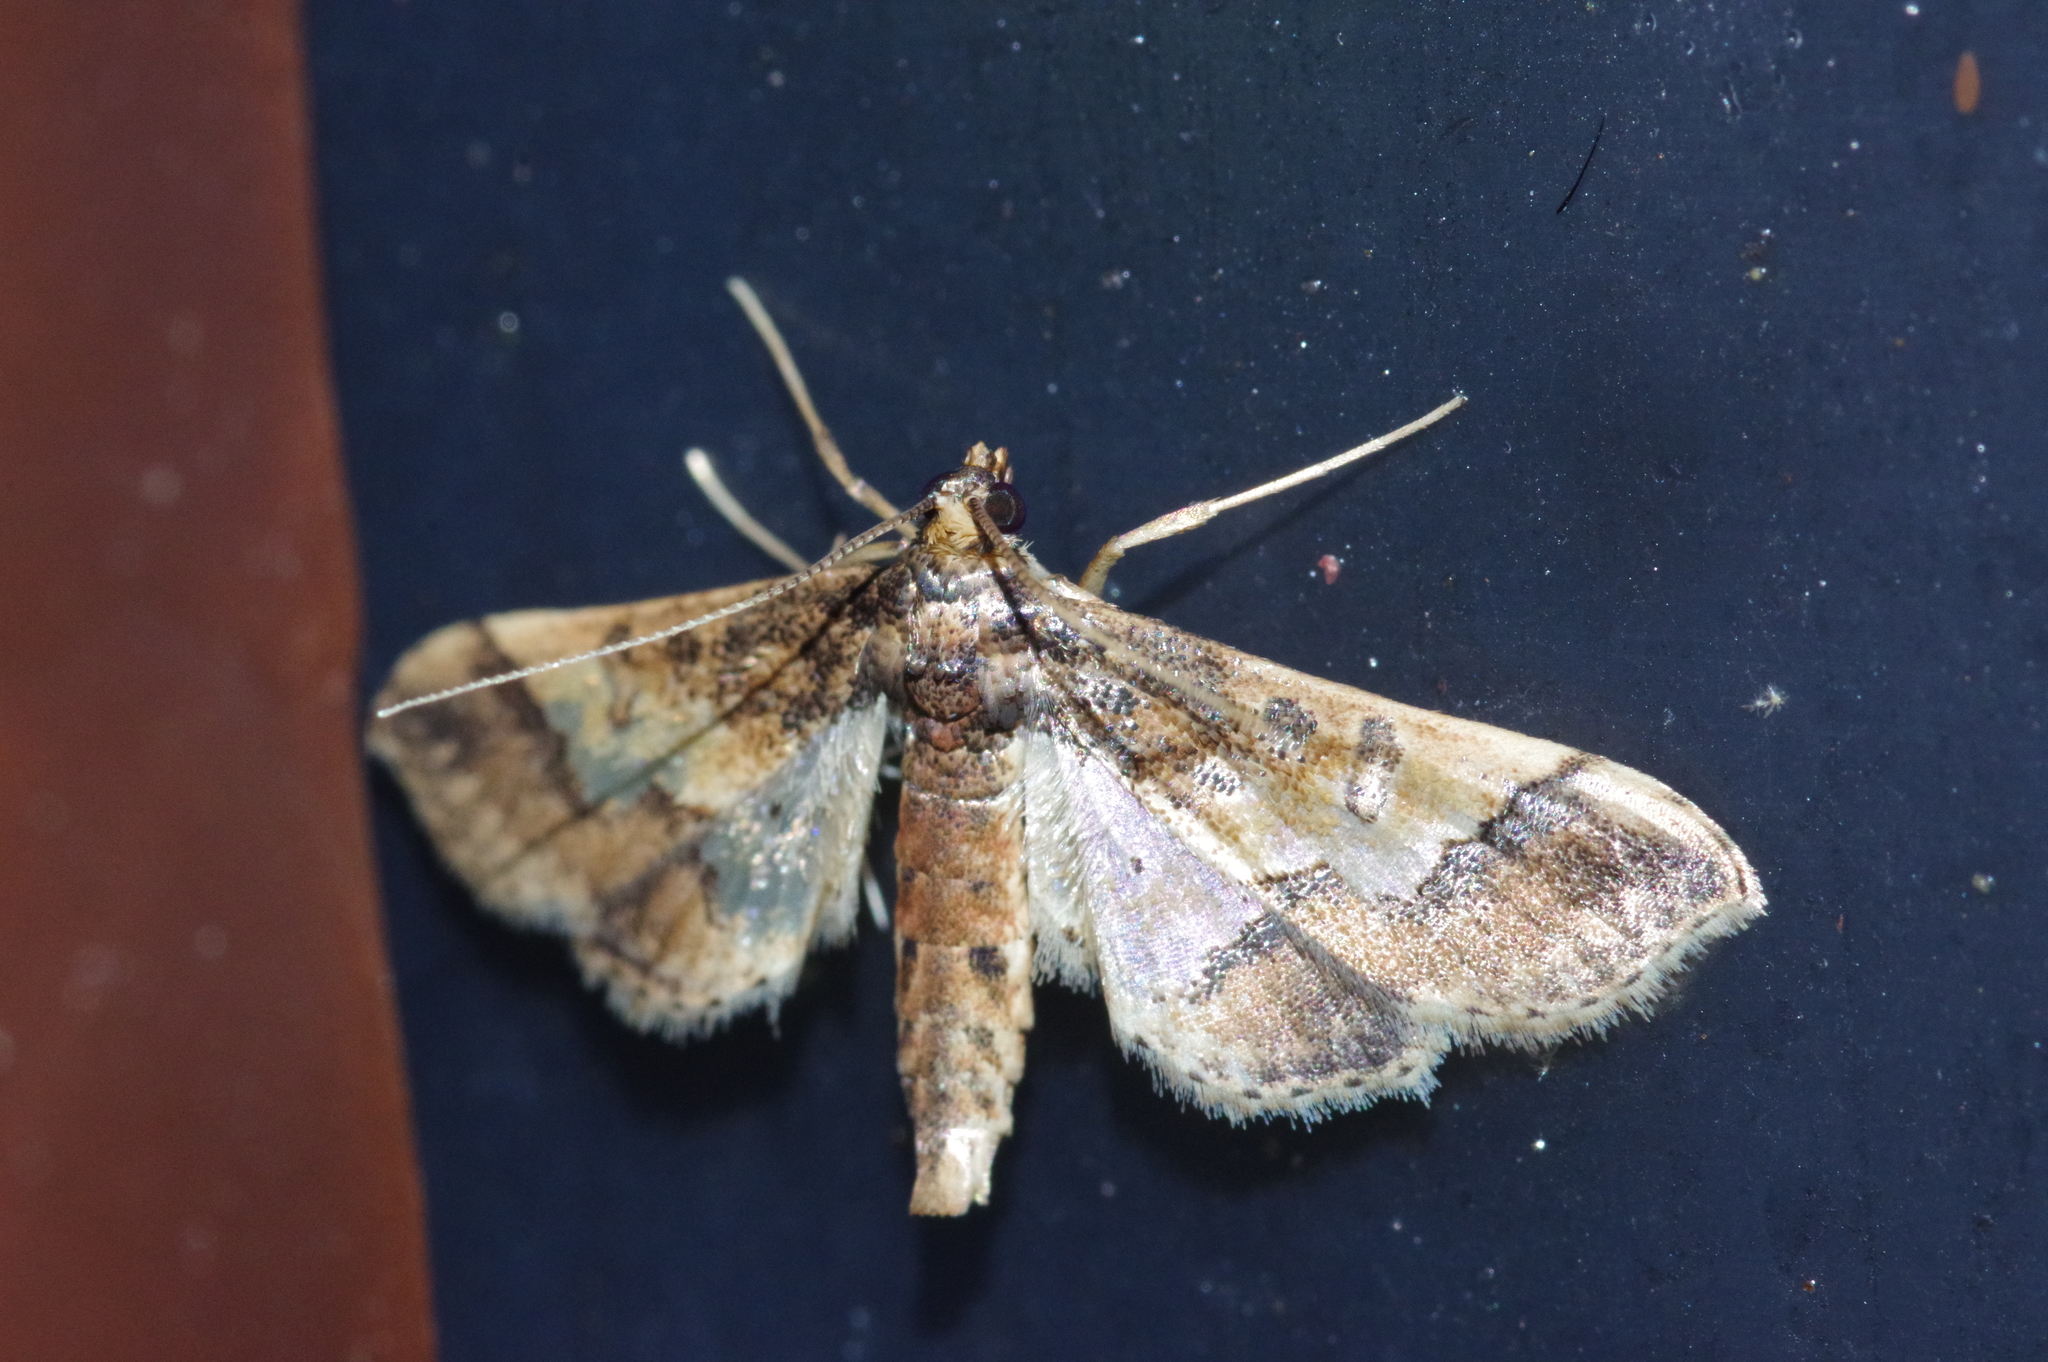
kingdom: Animalia
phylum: Arthropoda
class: Insecta
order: Lepidoptera
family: Crambidae
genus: Hydriris
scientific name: Hydriris ornatalis
